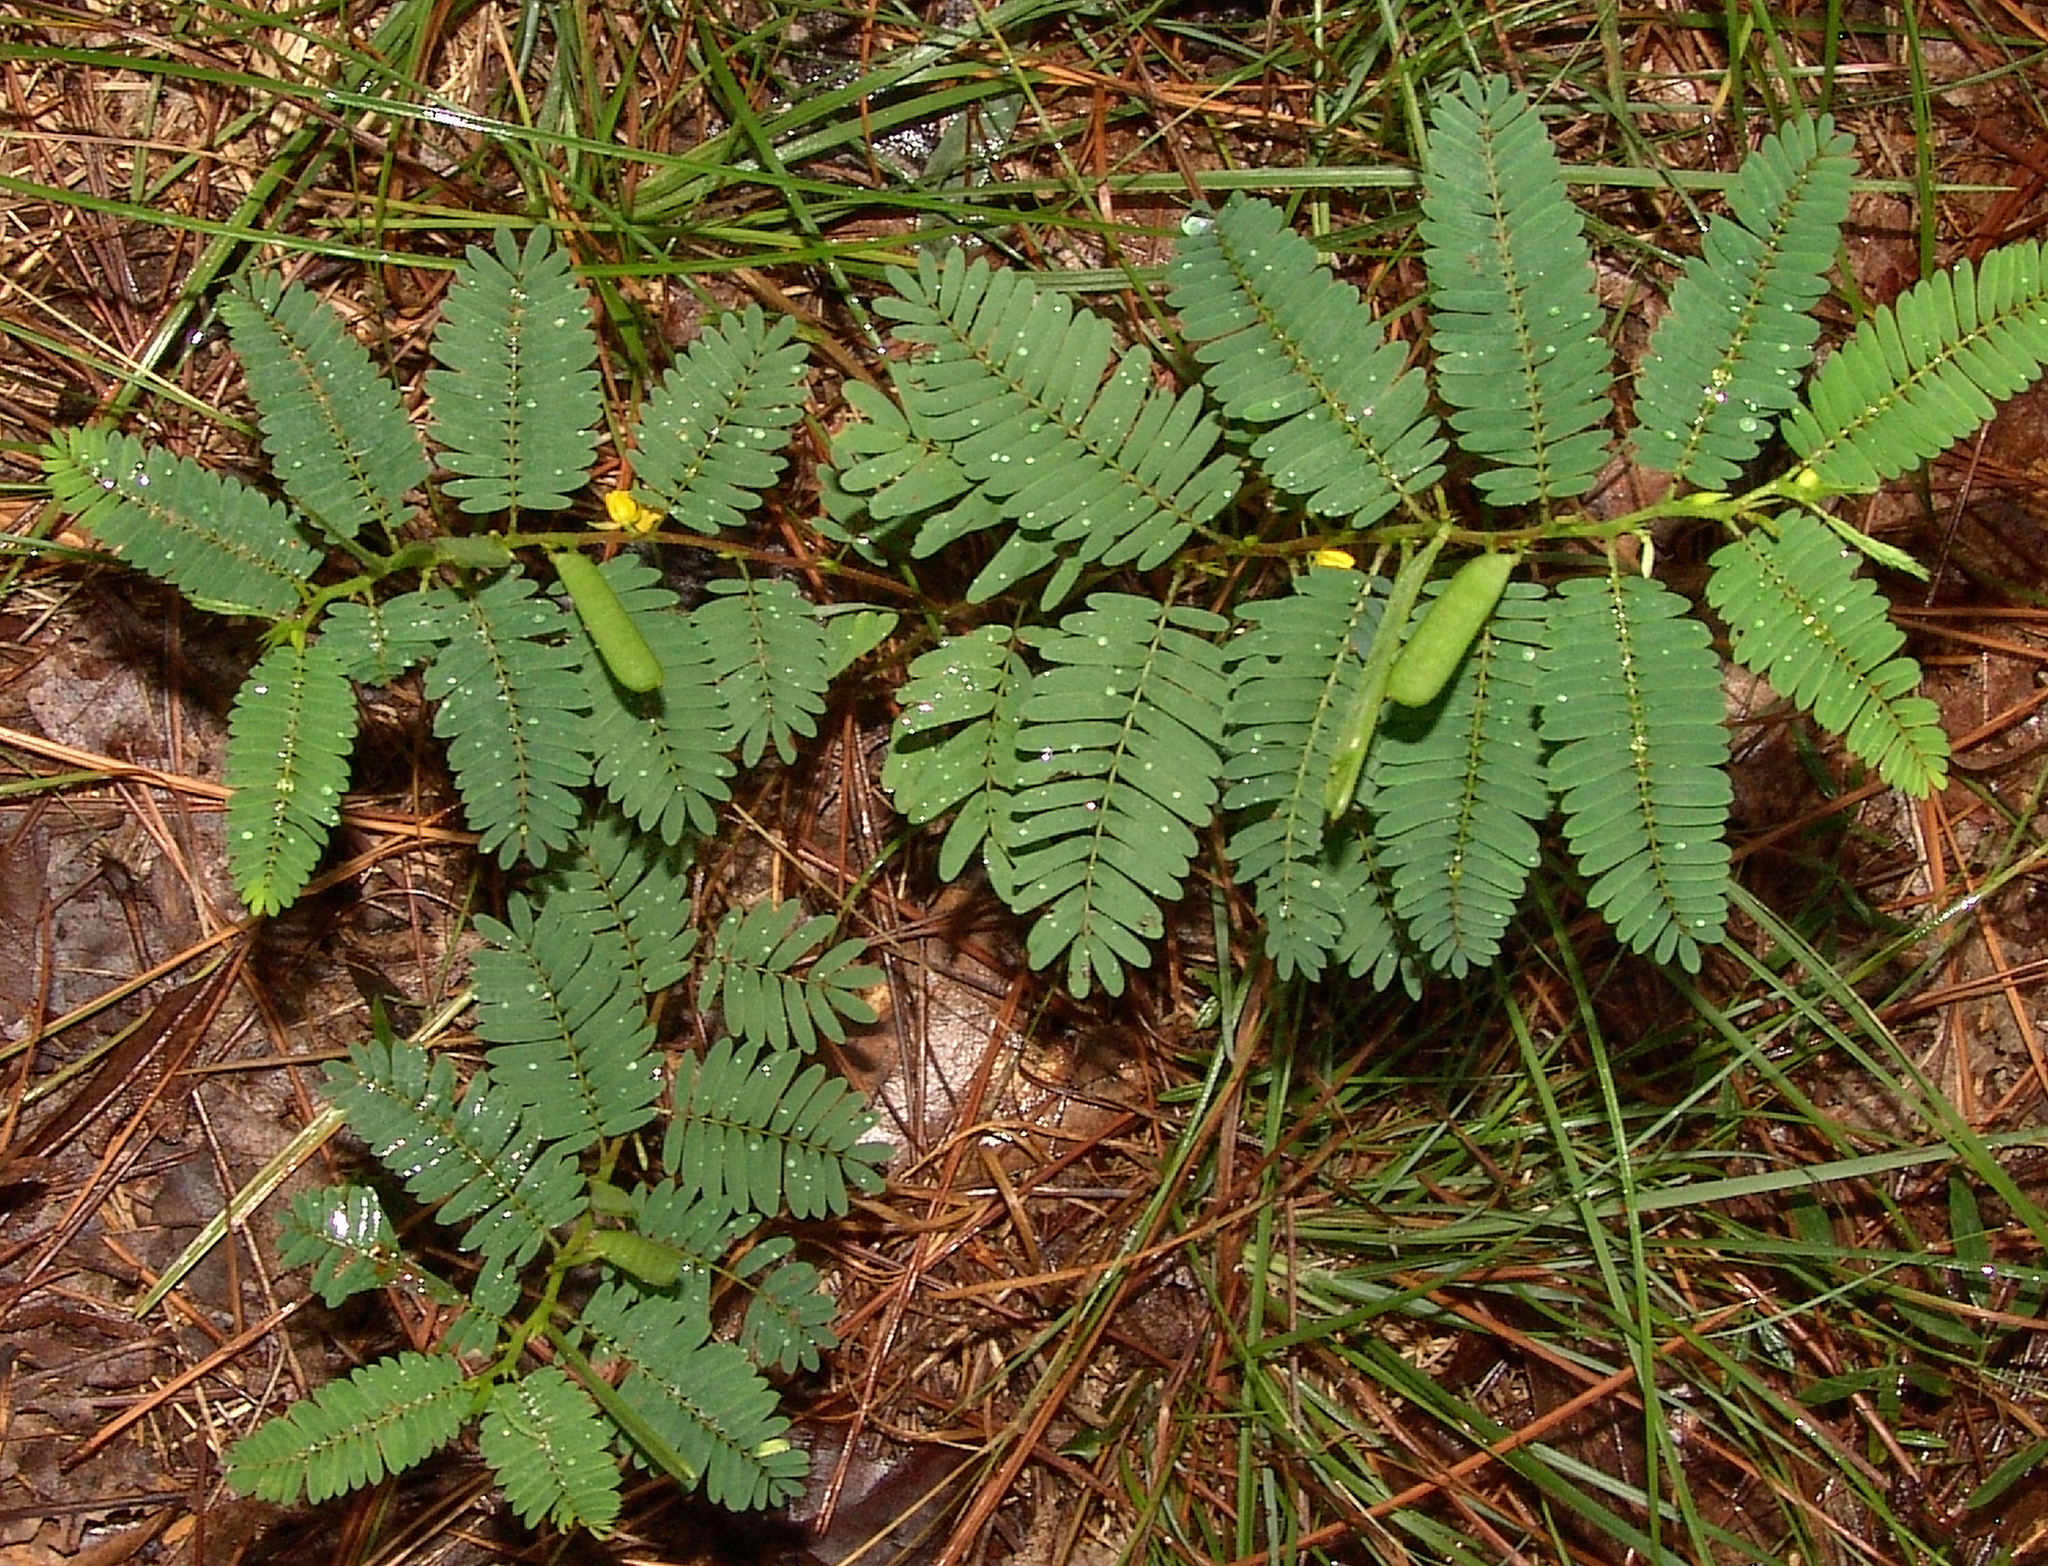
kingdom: Plantae
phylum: Tracheophyta
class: Magnoliopsida
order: Fabales
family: Fabaceae
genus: Chamaecrista
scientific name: Chamaecrista nictitans
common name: Sensitive cassia
